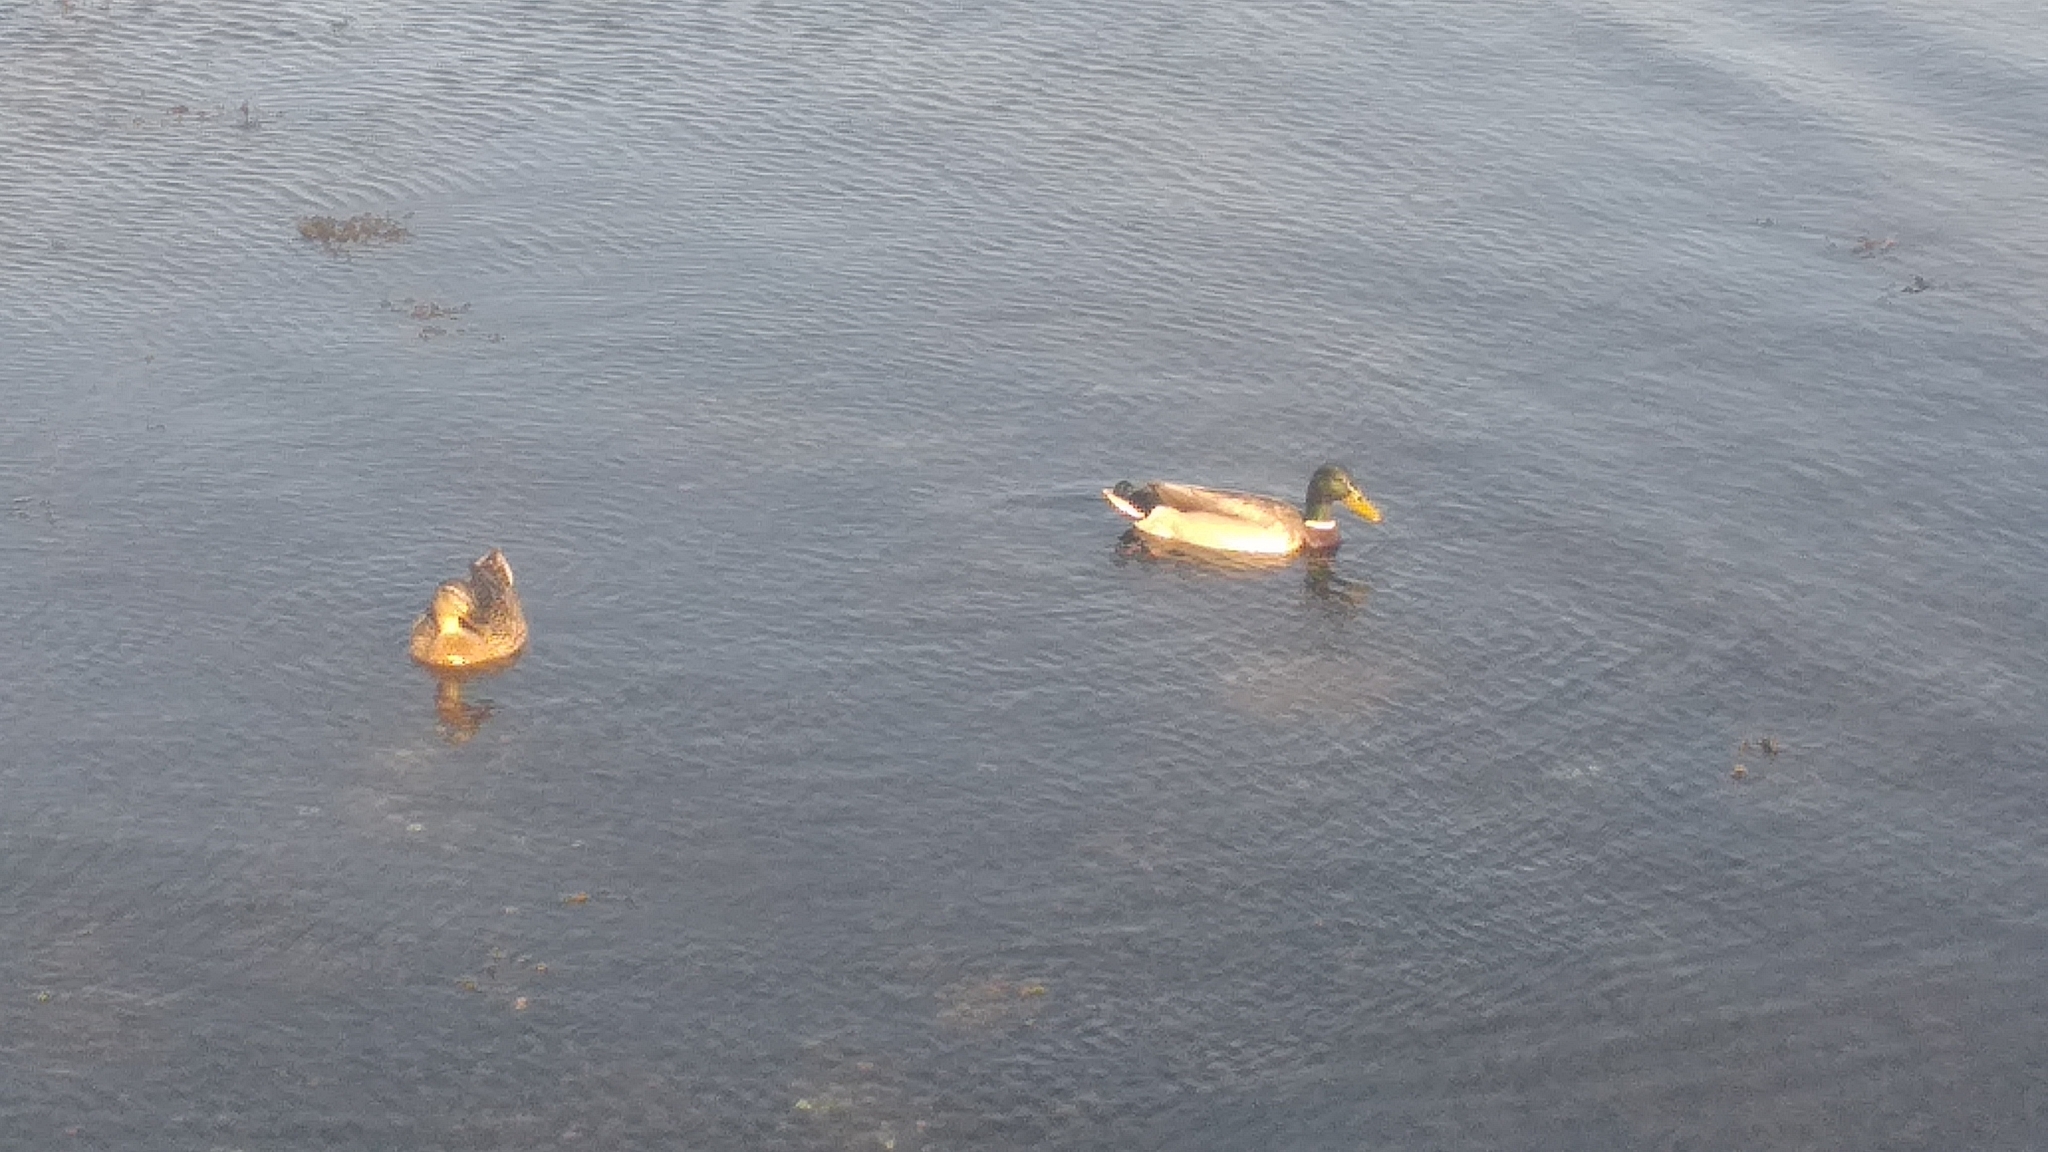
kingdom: Animalia
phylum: Chordata
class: Aves
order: Anseriformes
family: Anatidae
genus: Anas
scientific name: Anas platyrhynchos
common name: Mallard
